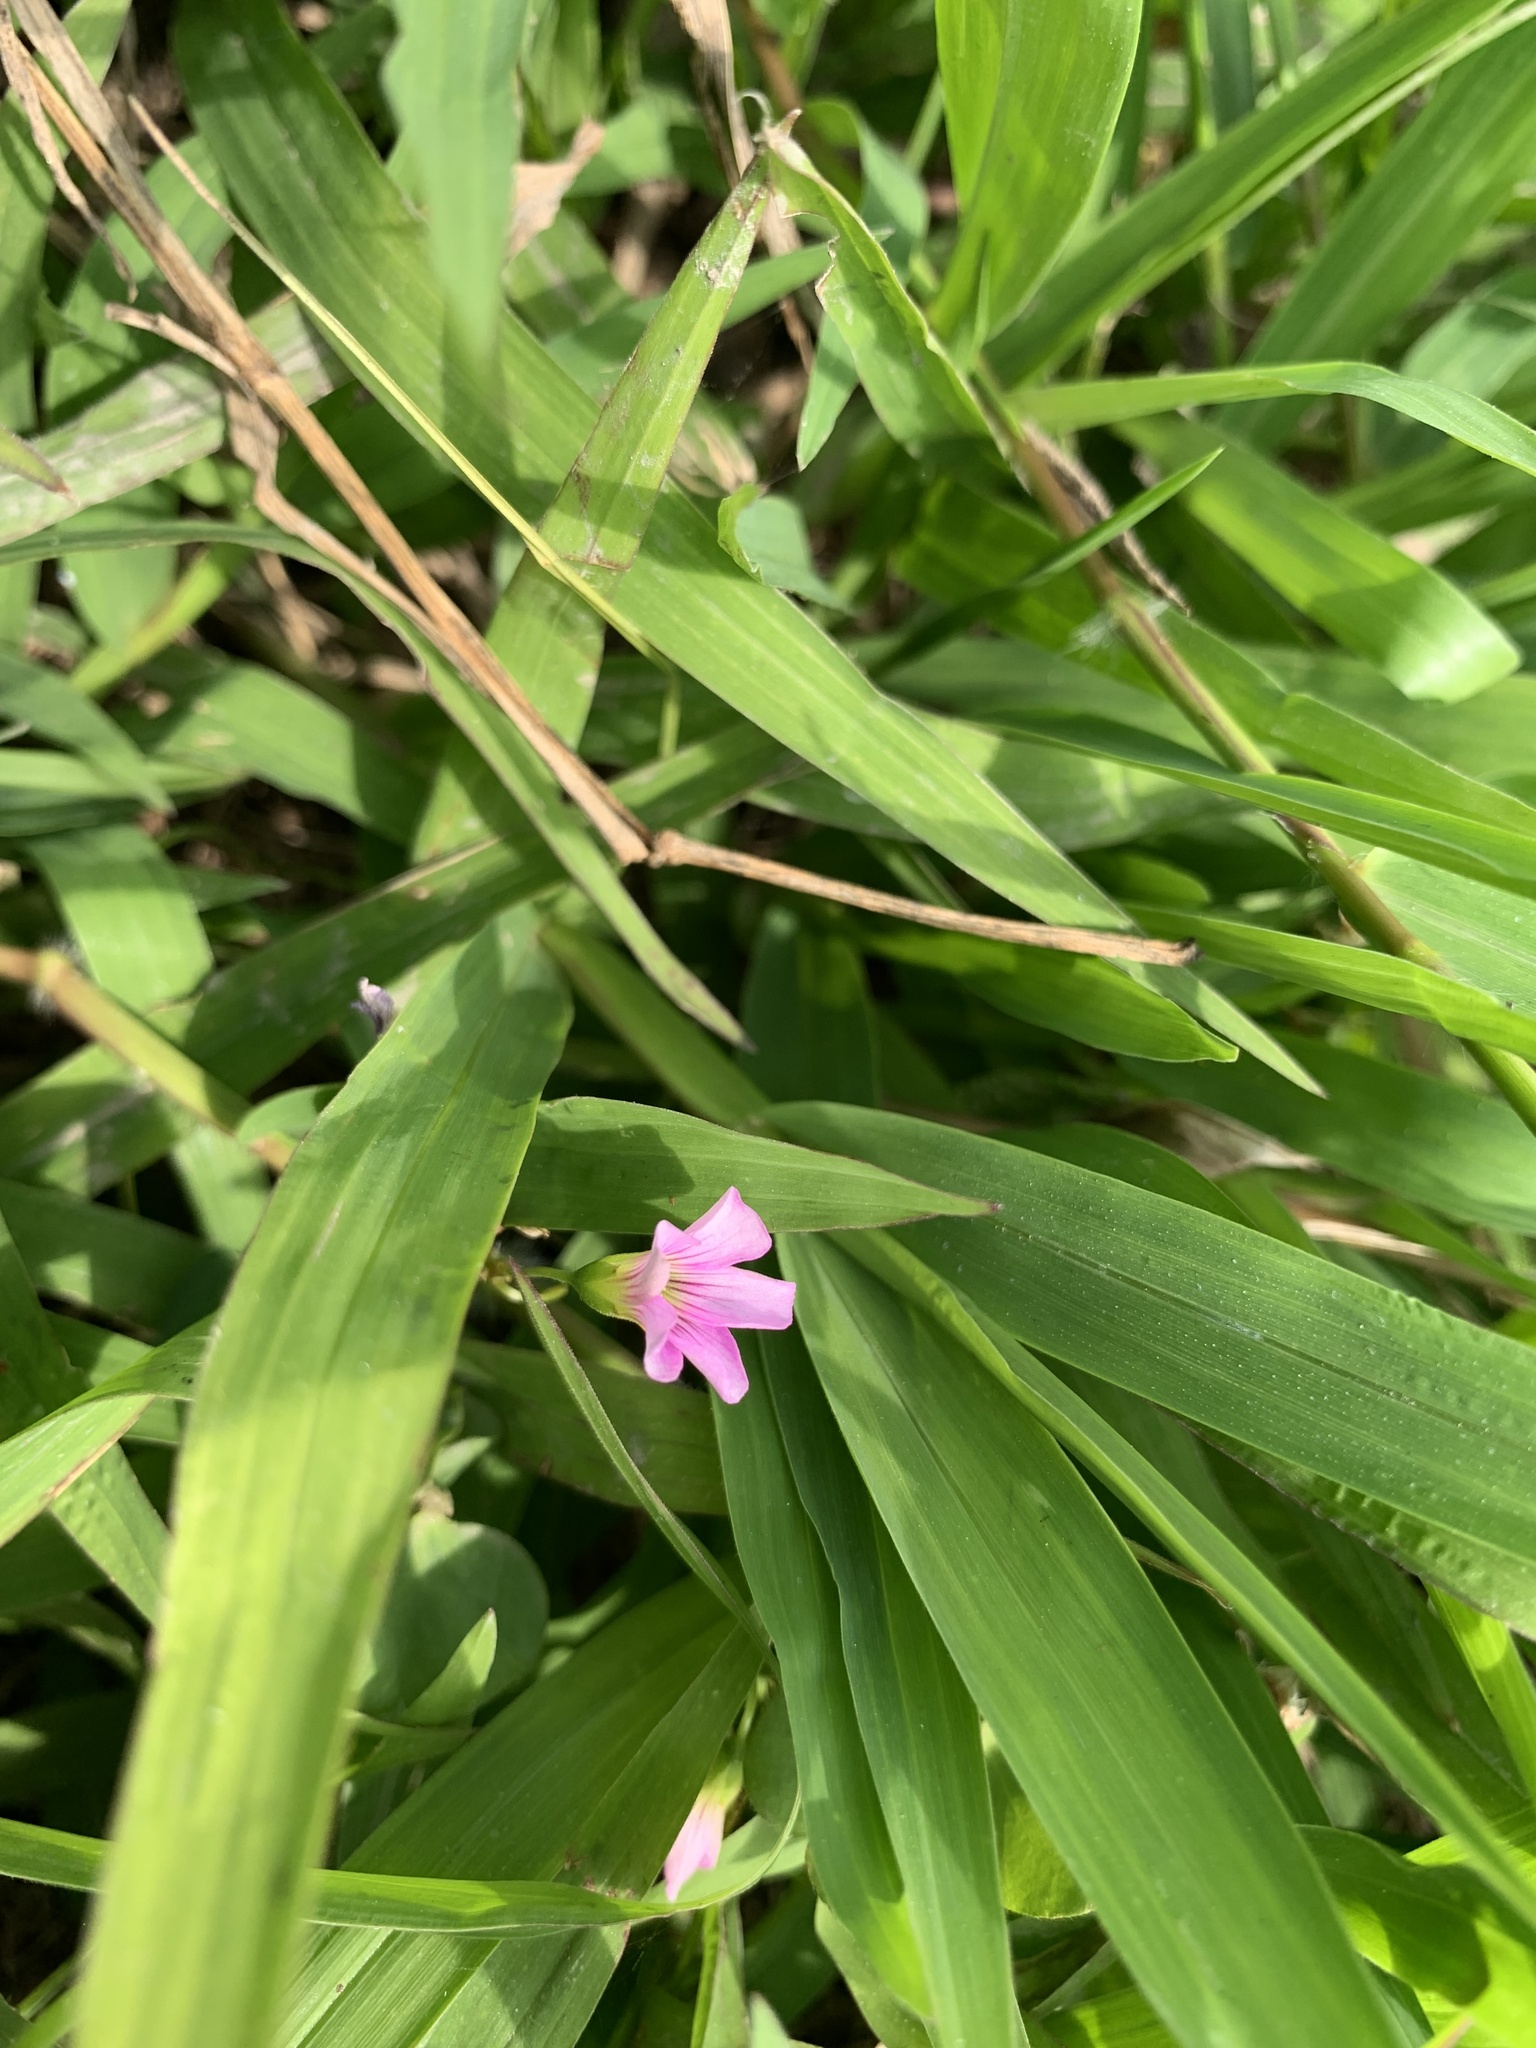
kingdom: Plantae
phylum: Tracheophyta
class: Magnoliopsida
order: Oxalidales
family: Oxalidaceae
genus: Oxalis
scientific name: Oxalis debilis
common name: Large-flowered pink-sorrel
